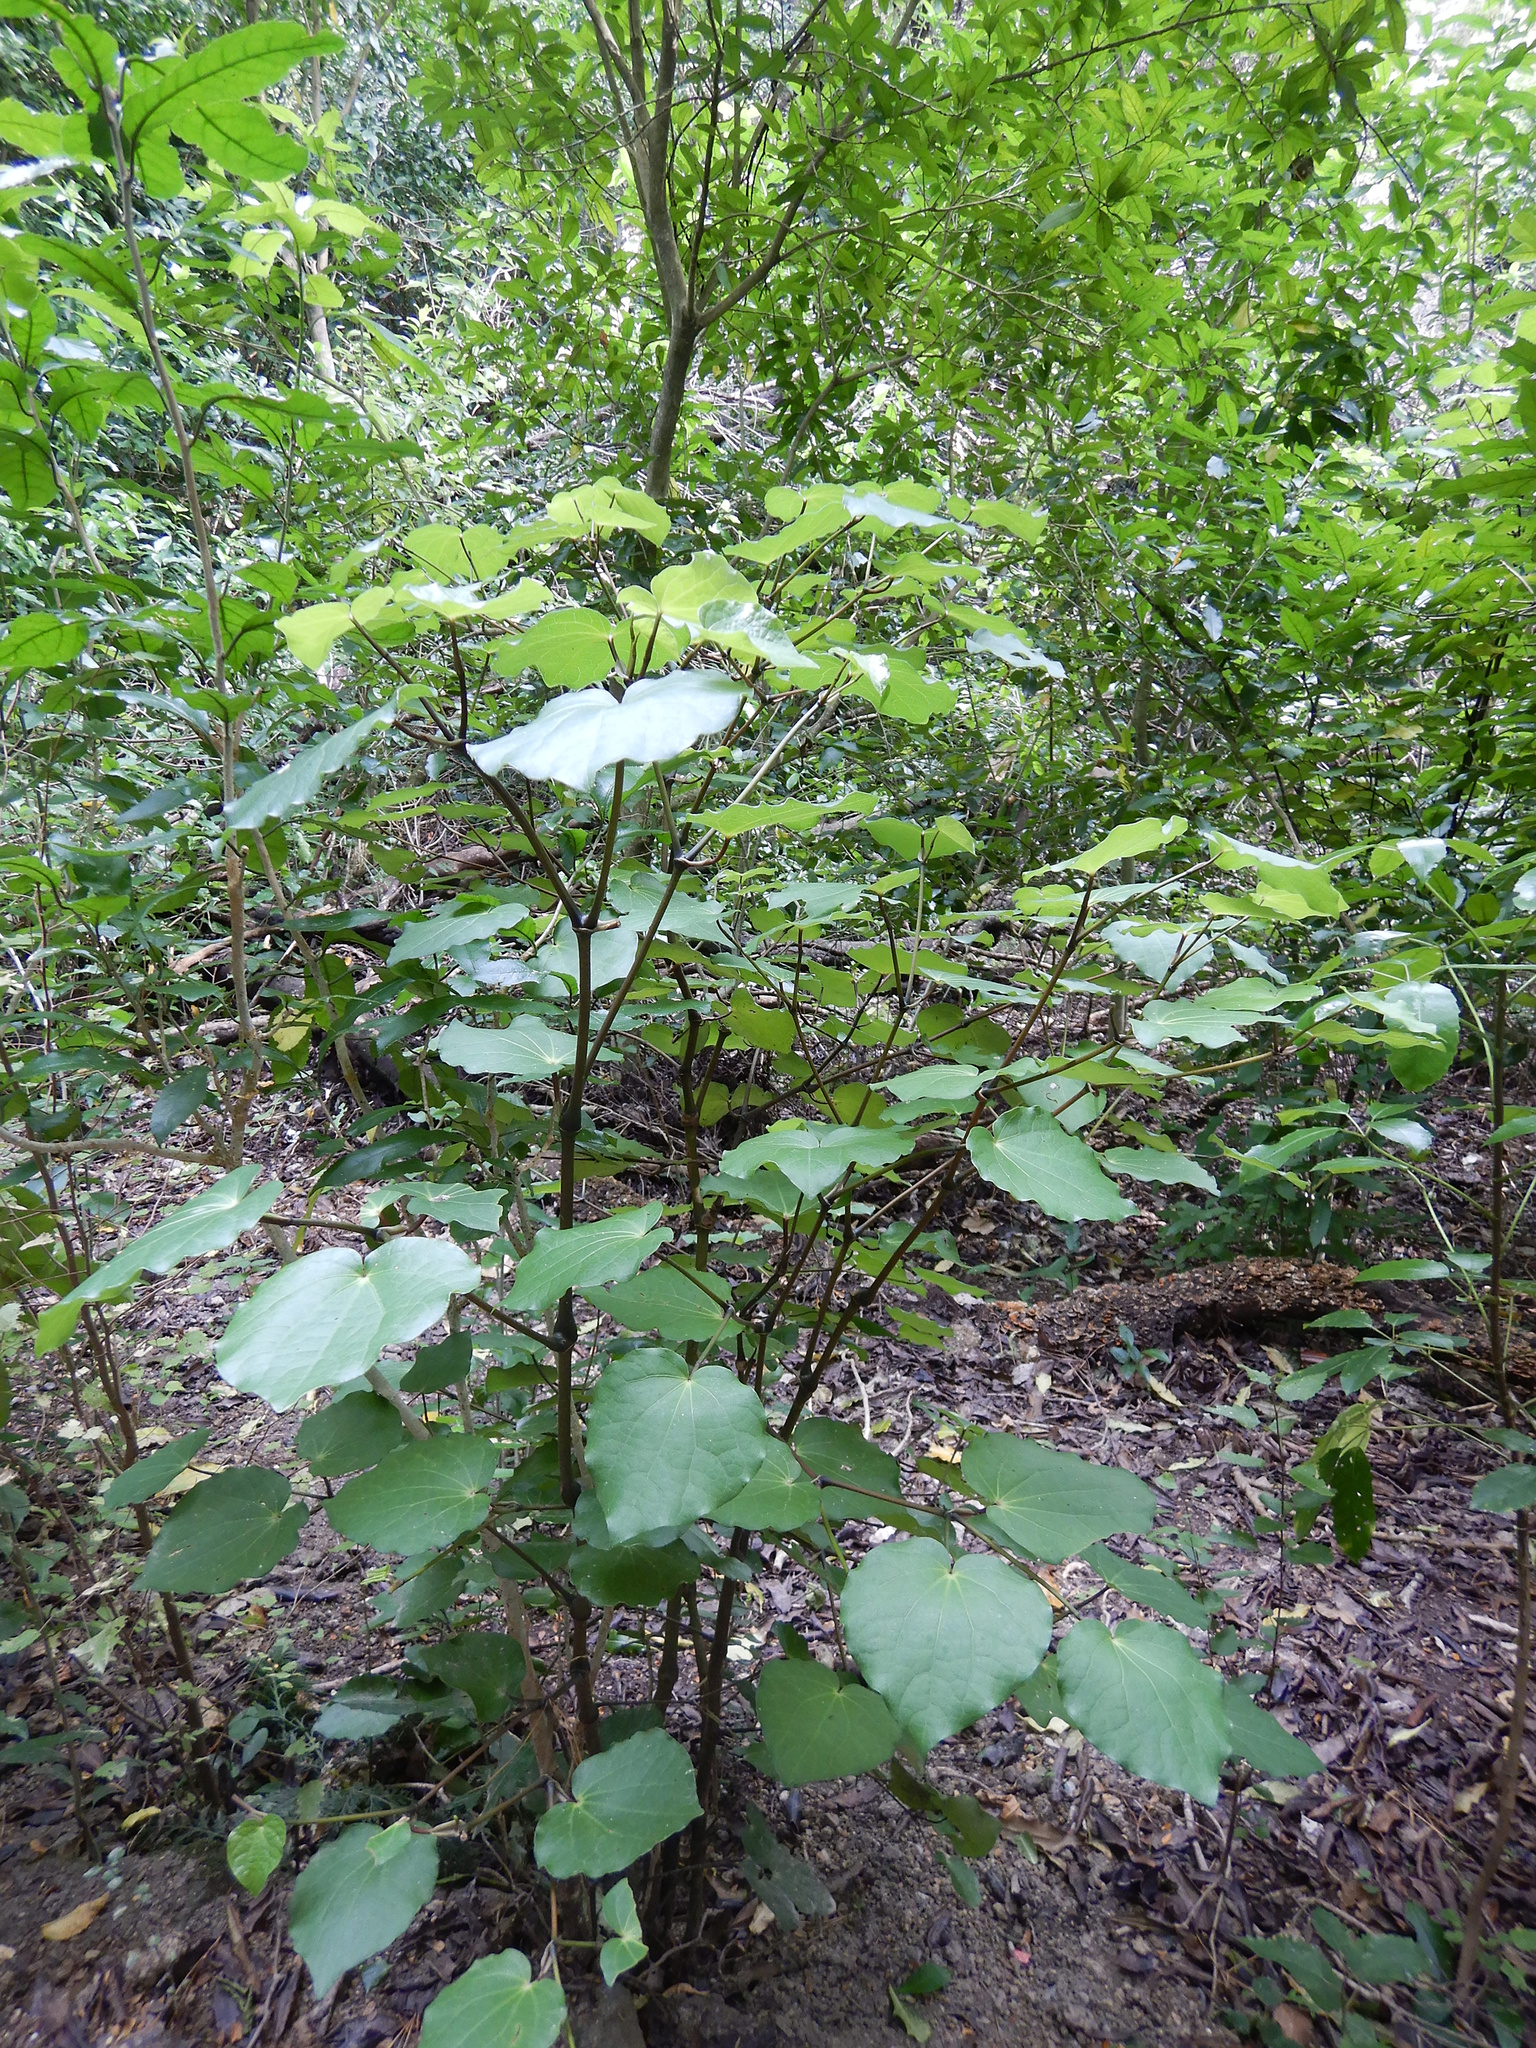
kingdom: Plantae
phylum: Tracheophyta
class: Magnoliopsida
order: Piperales
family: Piperaceae
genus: Macropiper
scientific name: Macropiper excelsum
